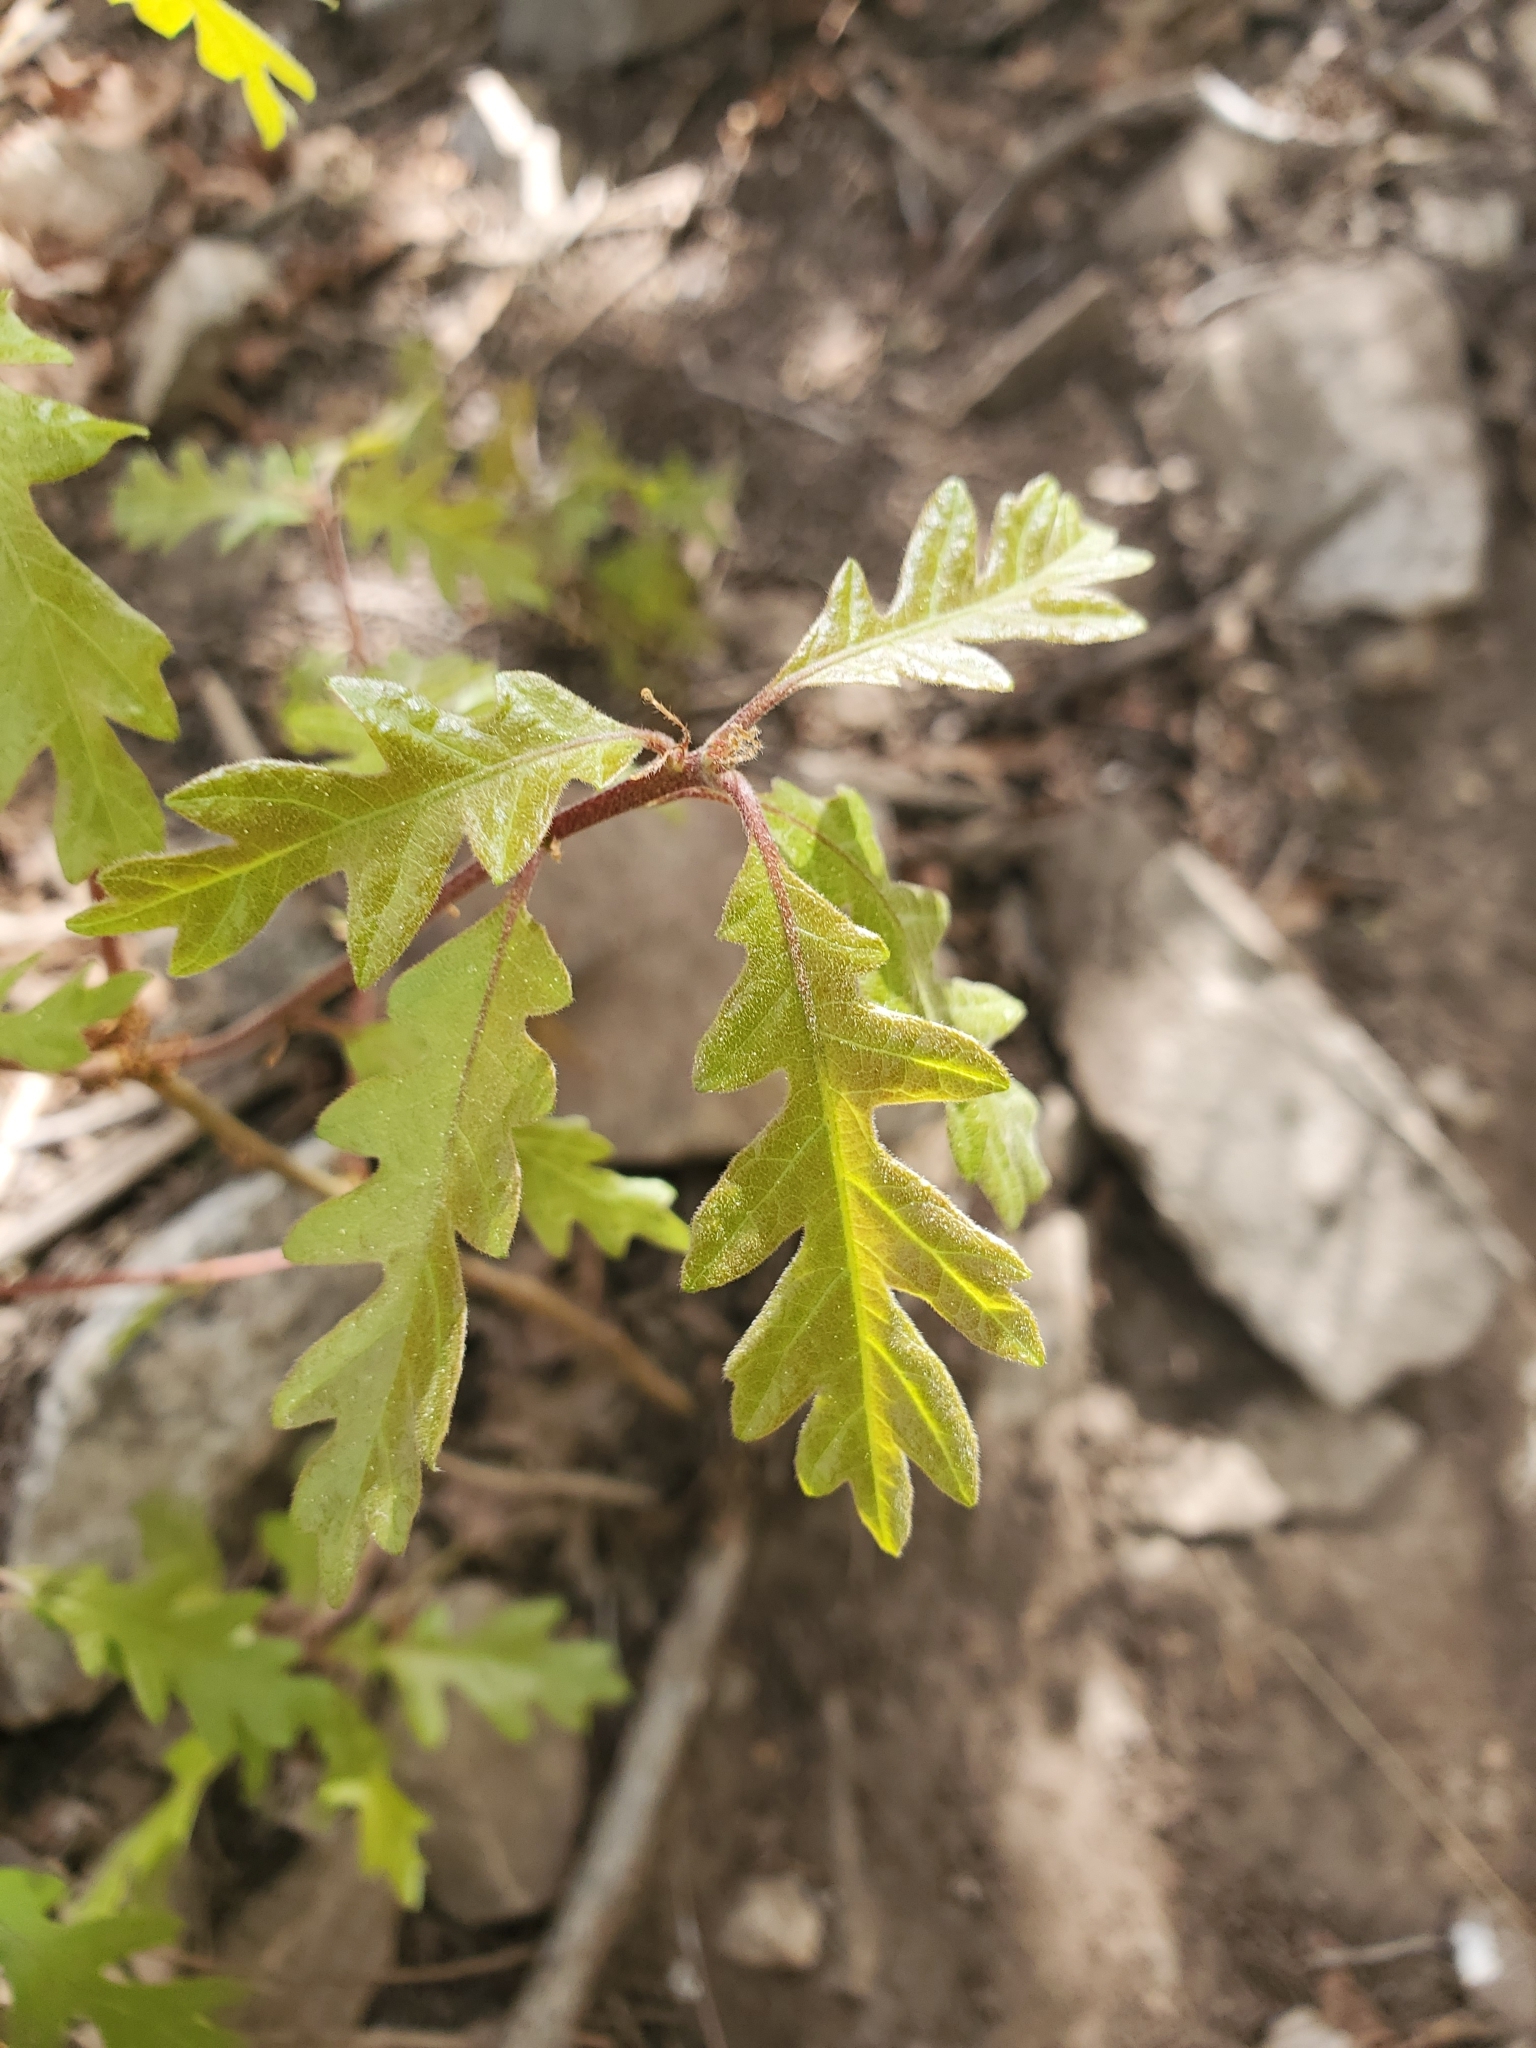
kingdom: Plantae
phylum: Tracheophyta
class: Magnoliopsida
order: Fagales
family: Fagaceae
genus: Quercus
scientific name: Quercus gambelii
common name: Gambel oak
